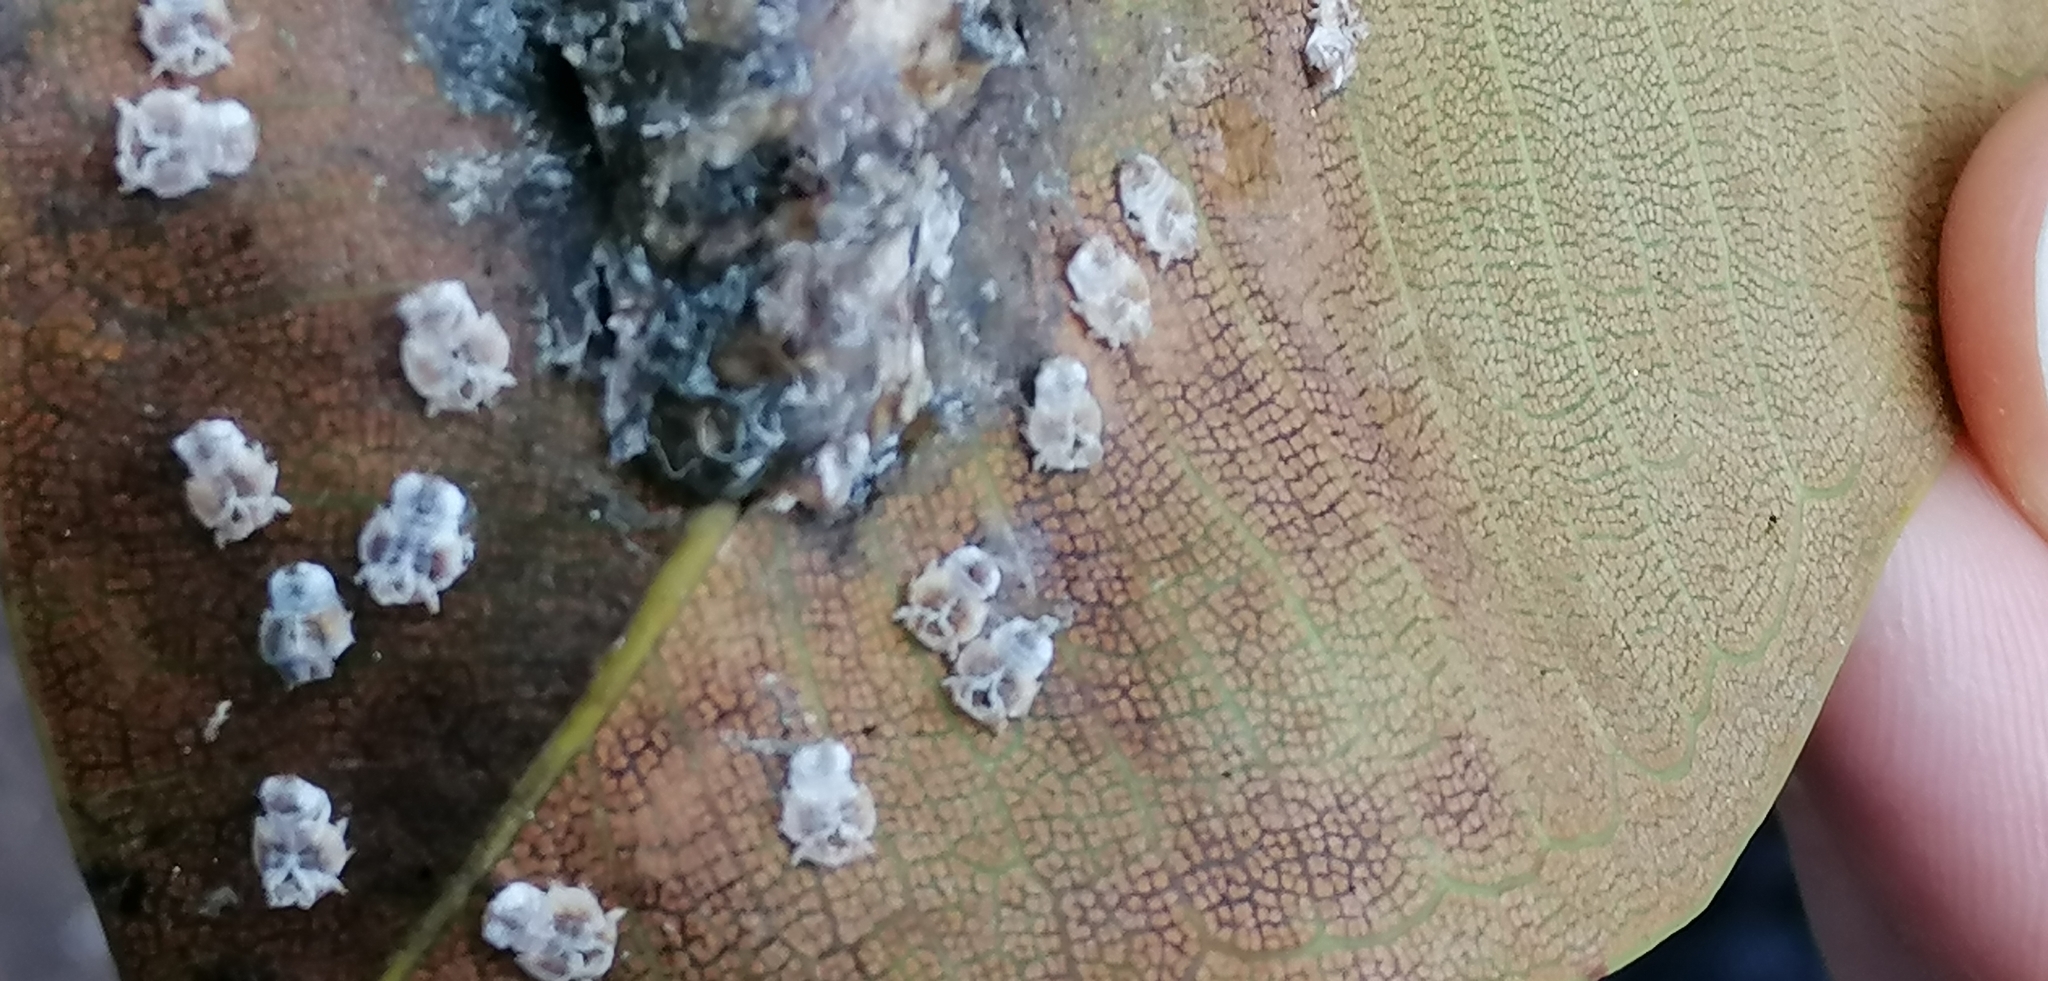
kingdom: Animalia
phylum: Arthropoda
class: Insecta
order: Hemiptera
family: Homotomidae
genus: Mycopsylla
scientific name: Mycopsylla fici
